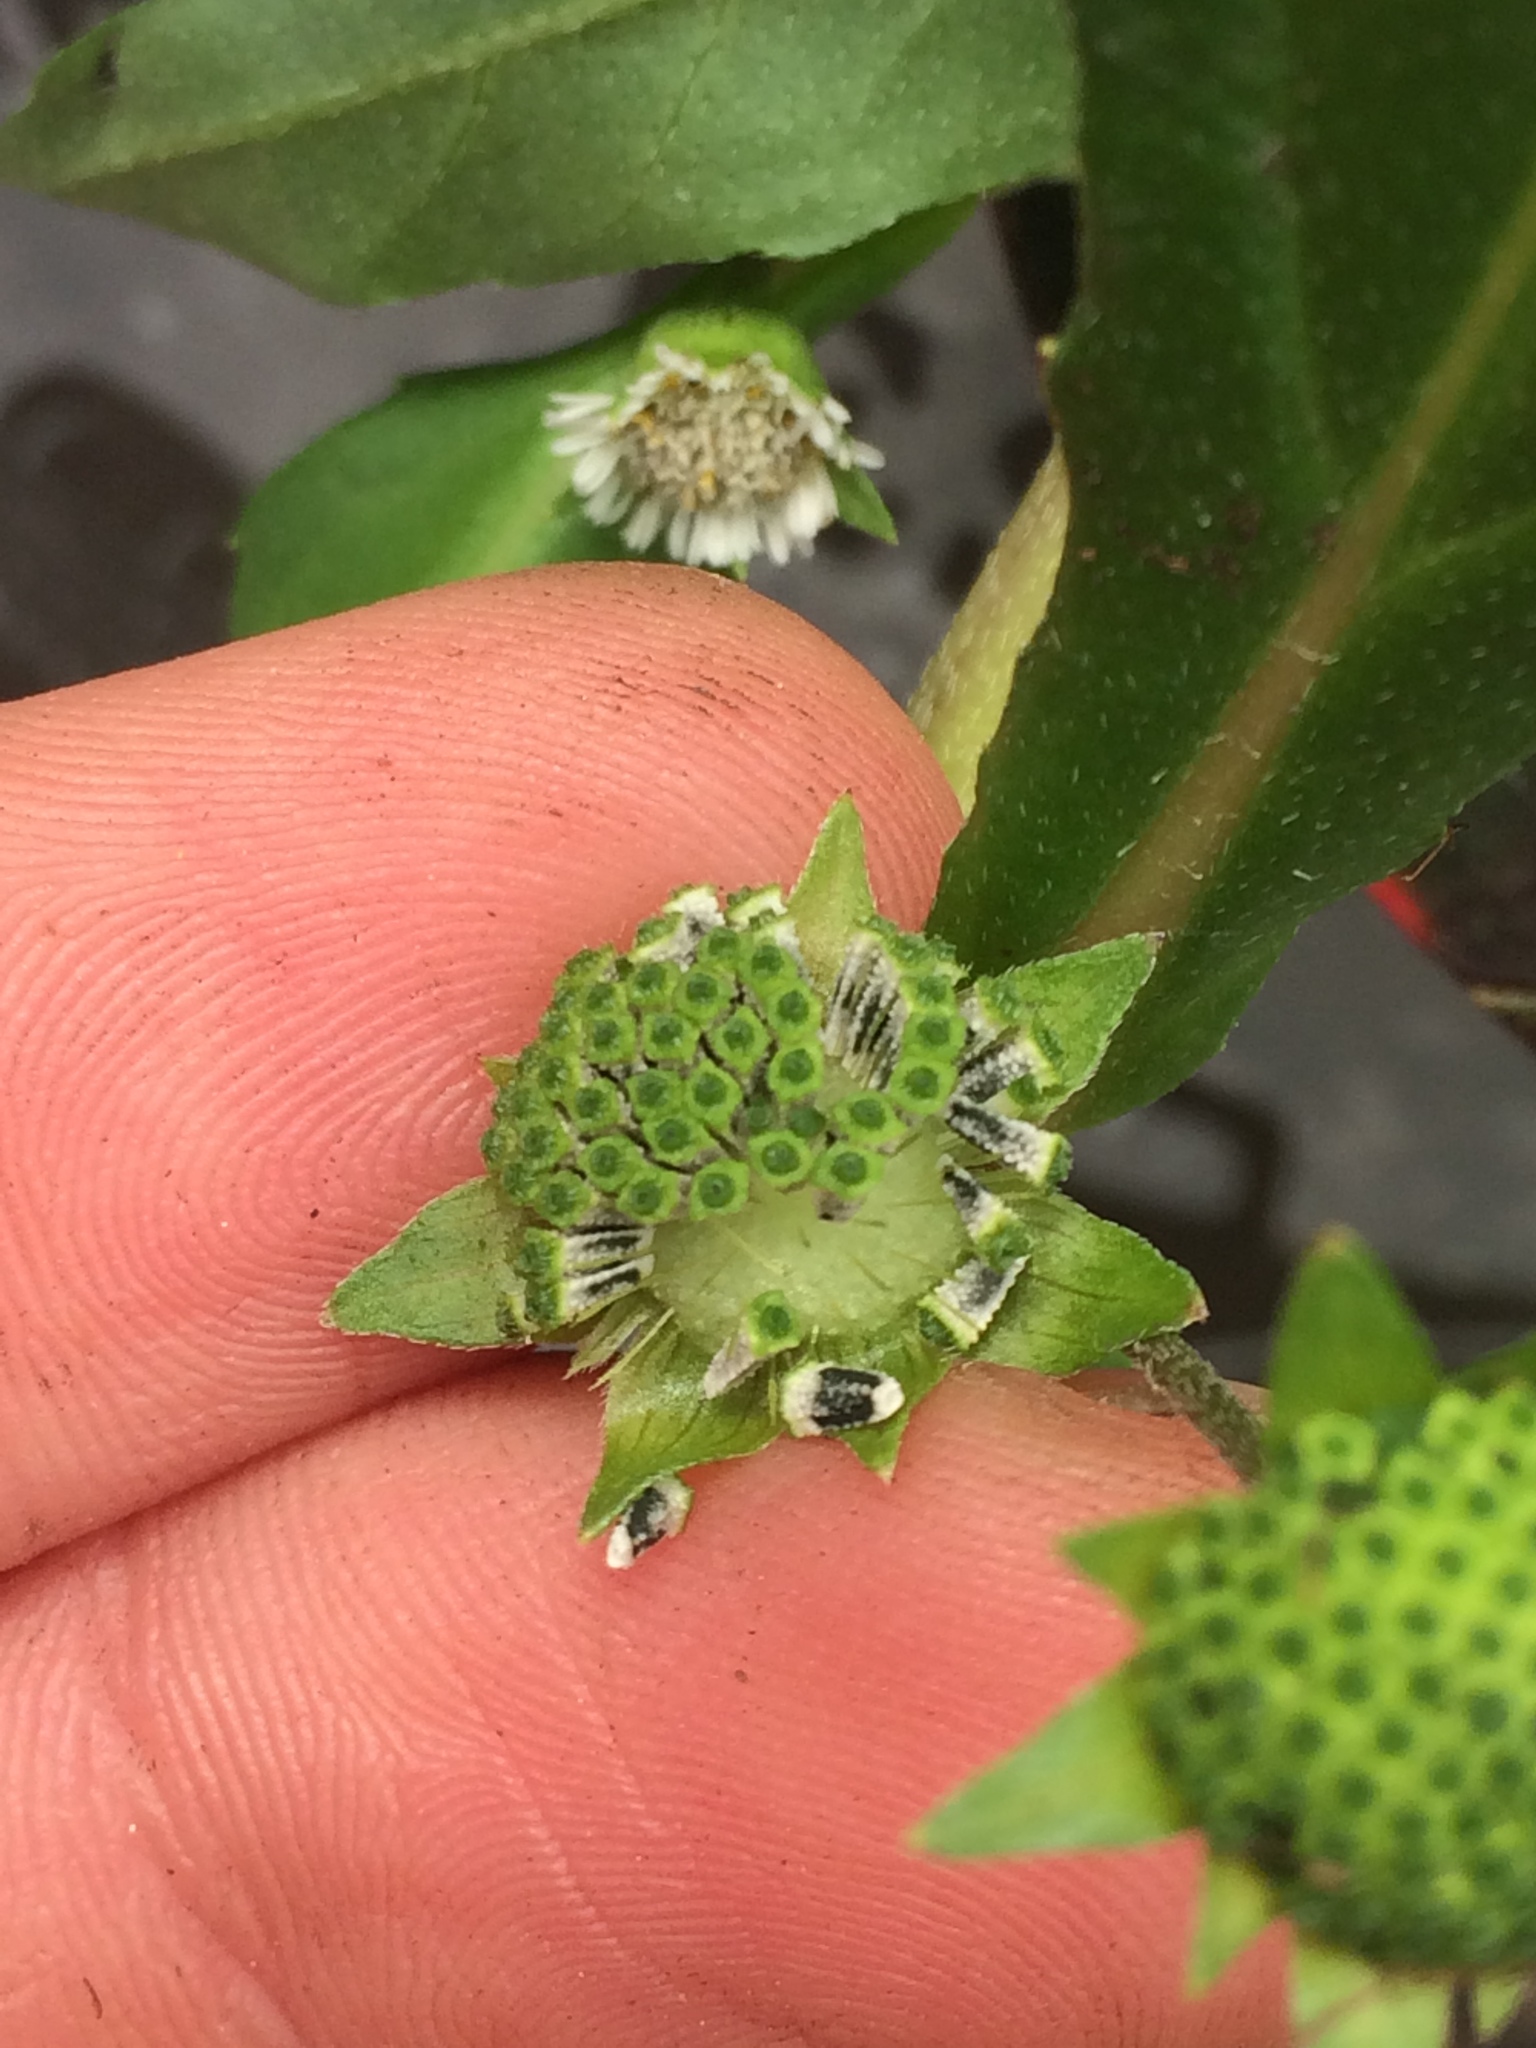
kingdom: Plantae
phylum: Tracheophyta
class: Magnoliopsida
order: Asterales
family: Asteraceae
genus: Eclipta
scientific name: Eclipta prostrata
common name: False daisy
